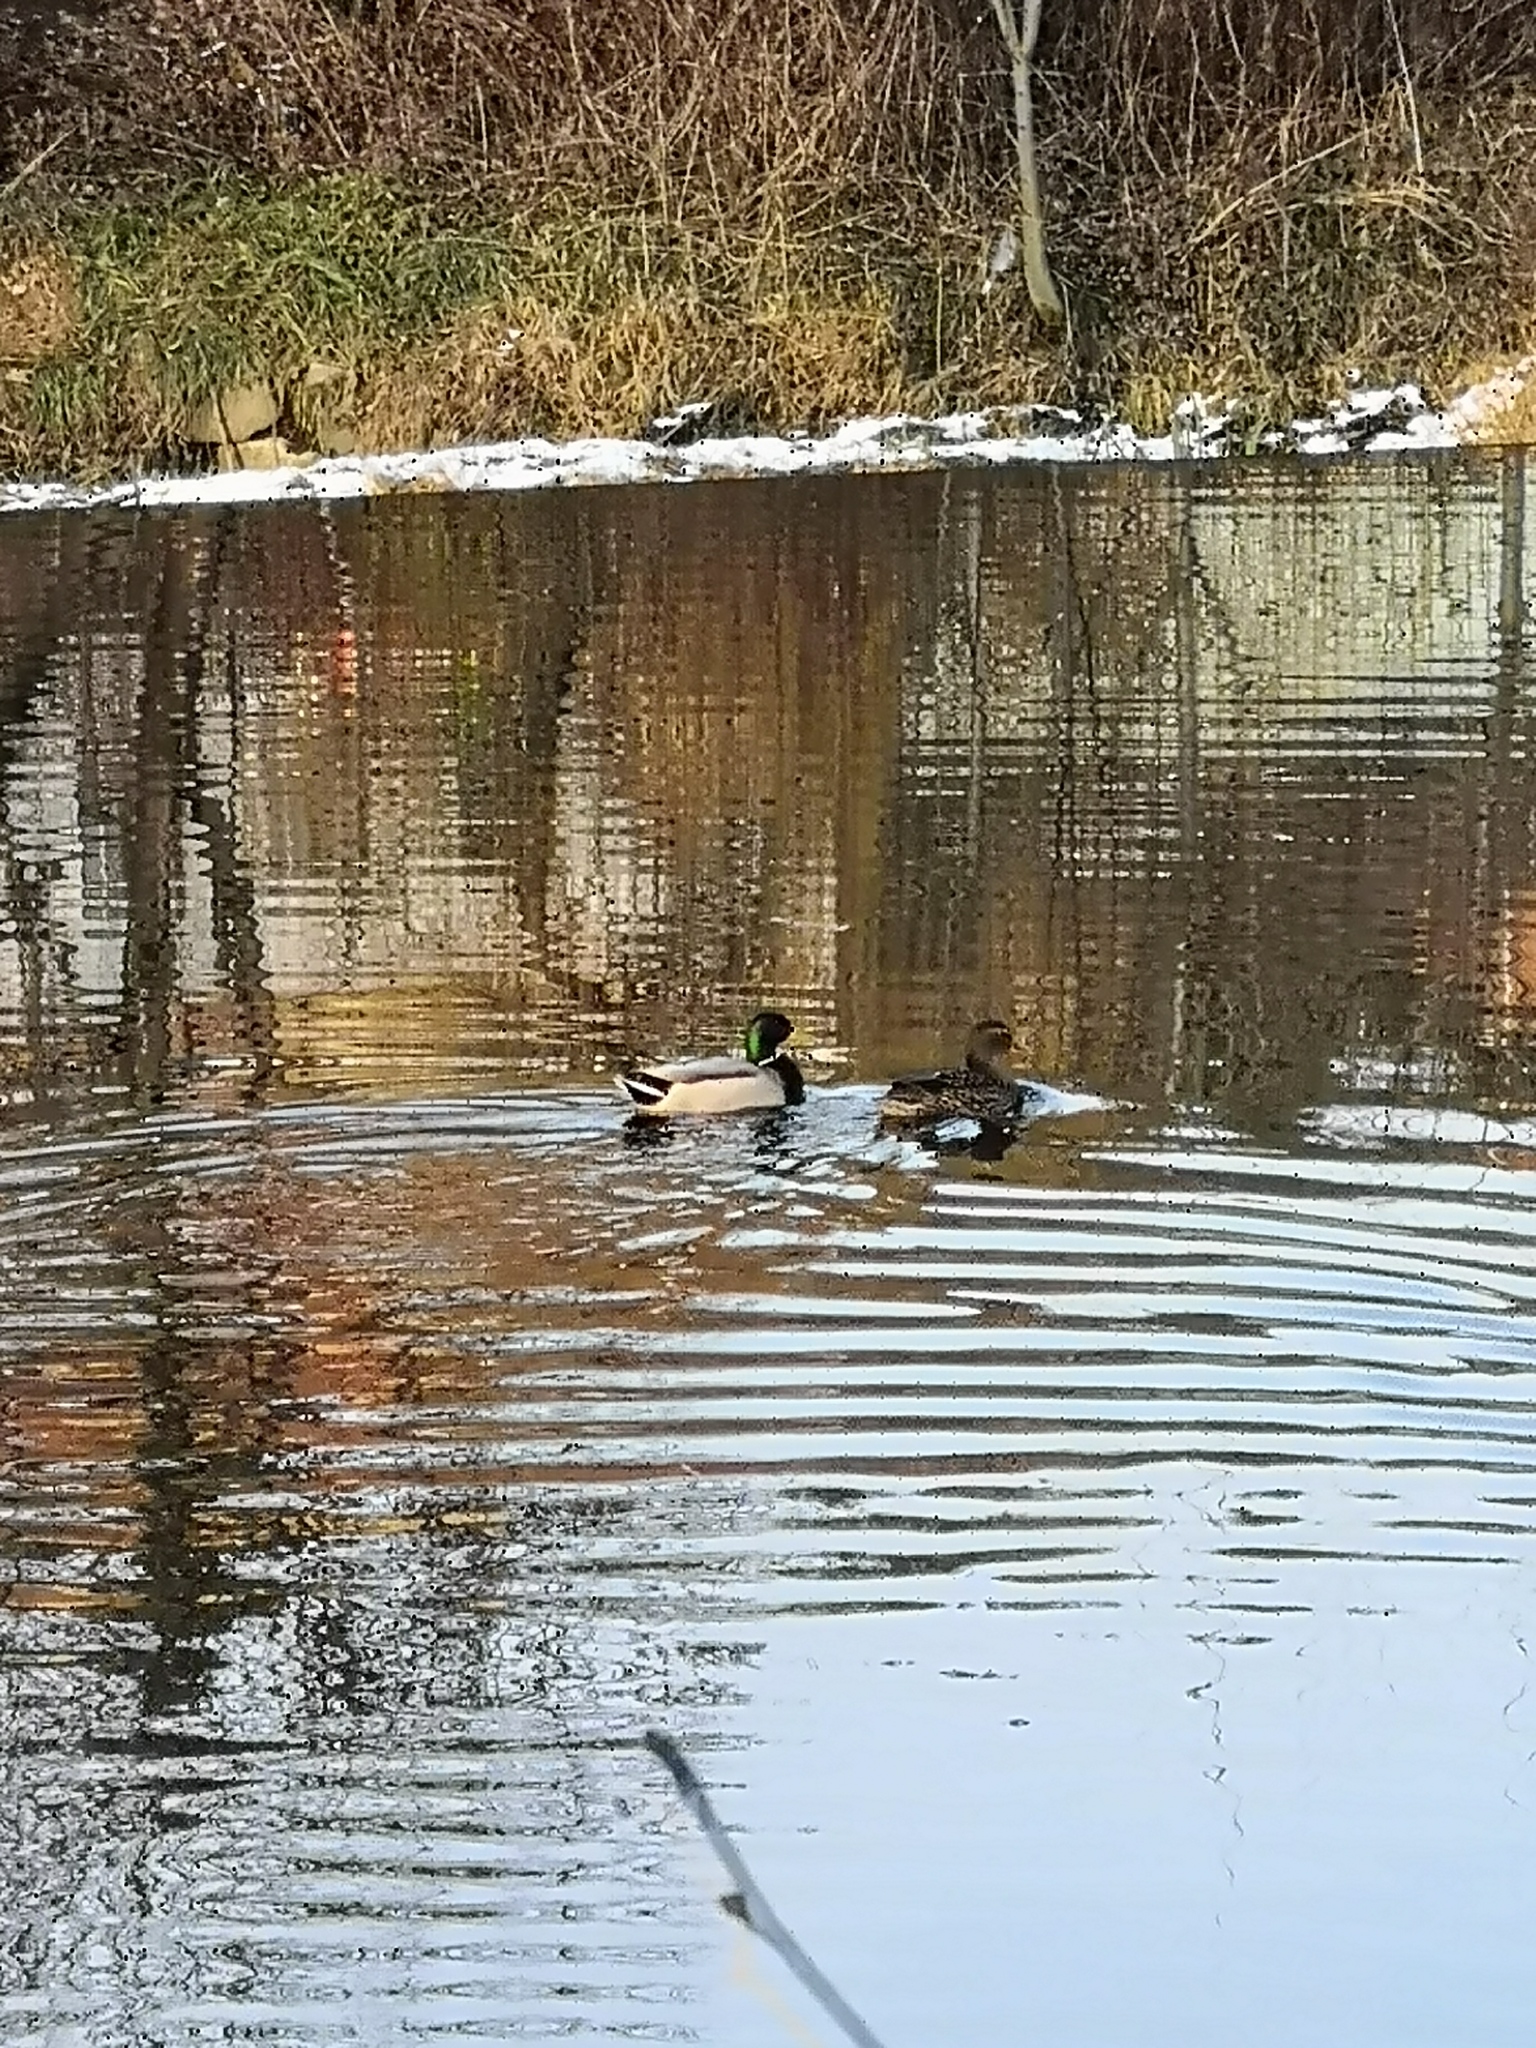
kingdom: Animalia
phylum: Chordata
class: Aves
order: Anseriformes
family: Anatidae
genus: Anas
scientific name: Anas platyrhynchos
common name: Mallard
